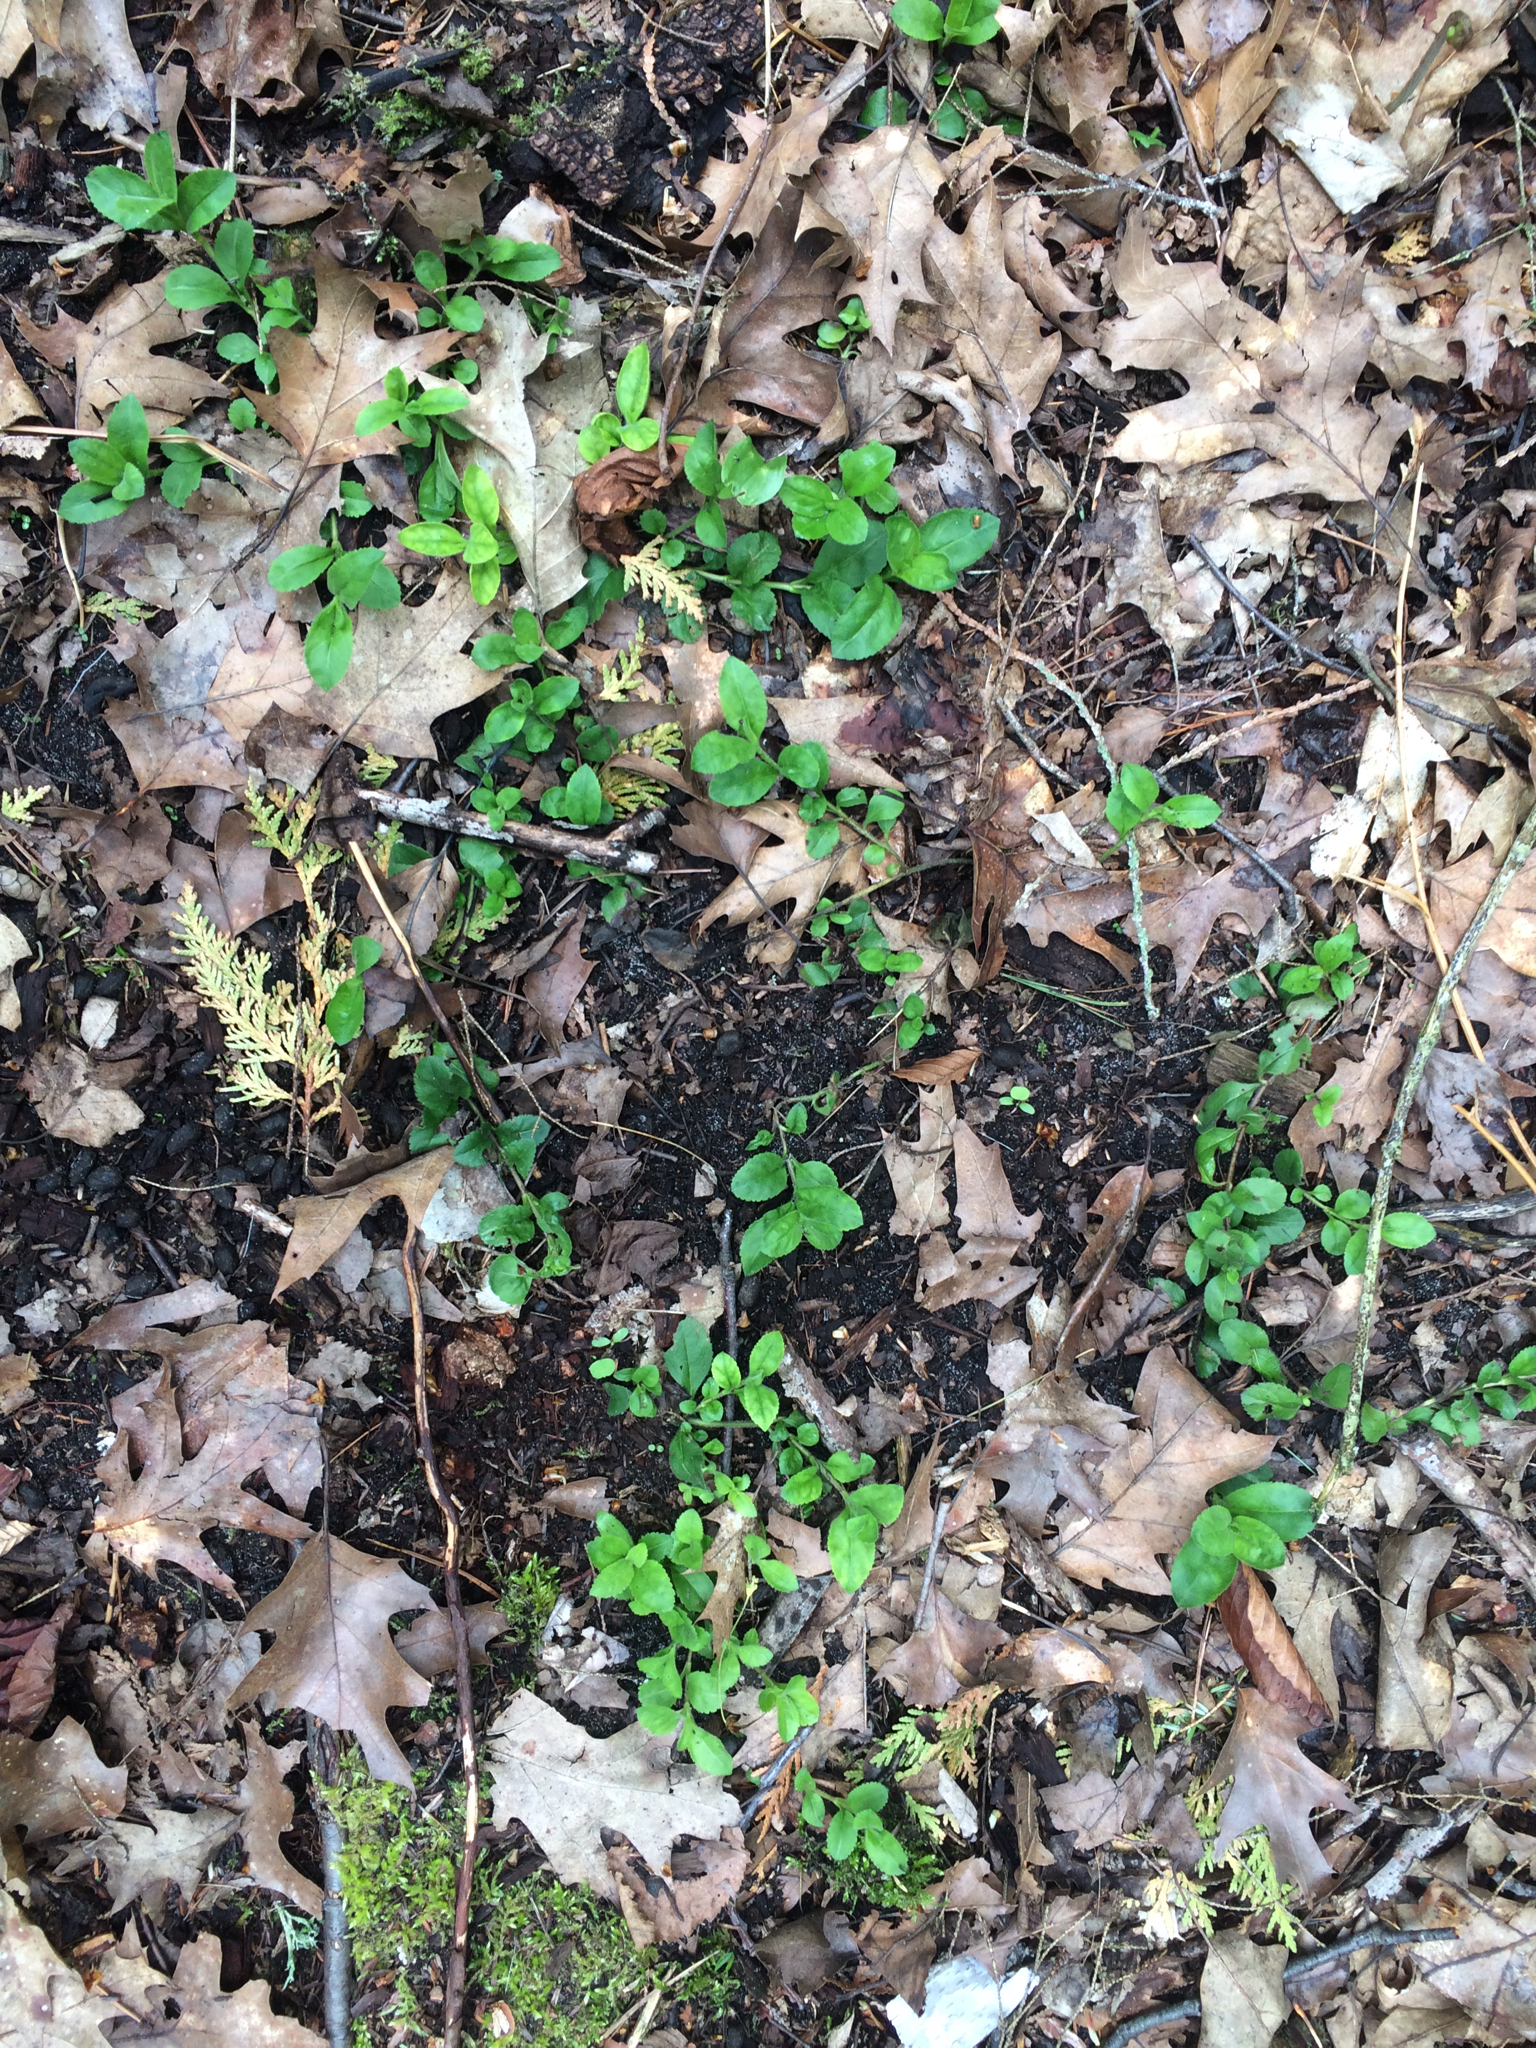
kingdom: Plantae
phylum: Tracheophyta
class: Magnoliopsida
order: Lamiales
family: Plantaginaceae
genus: Veronica
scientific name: Veronica officinalis
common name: Common speedwell
